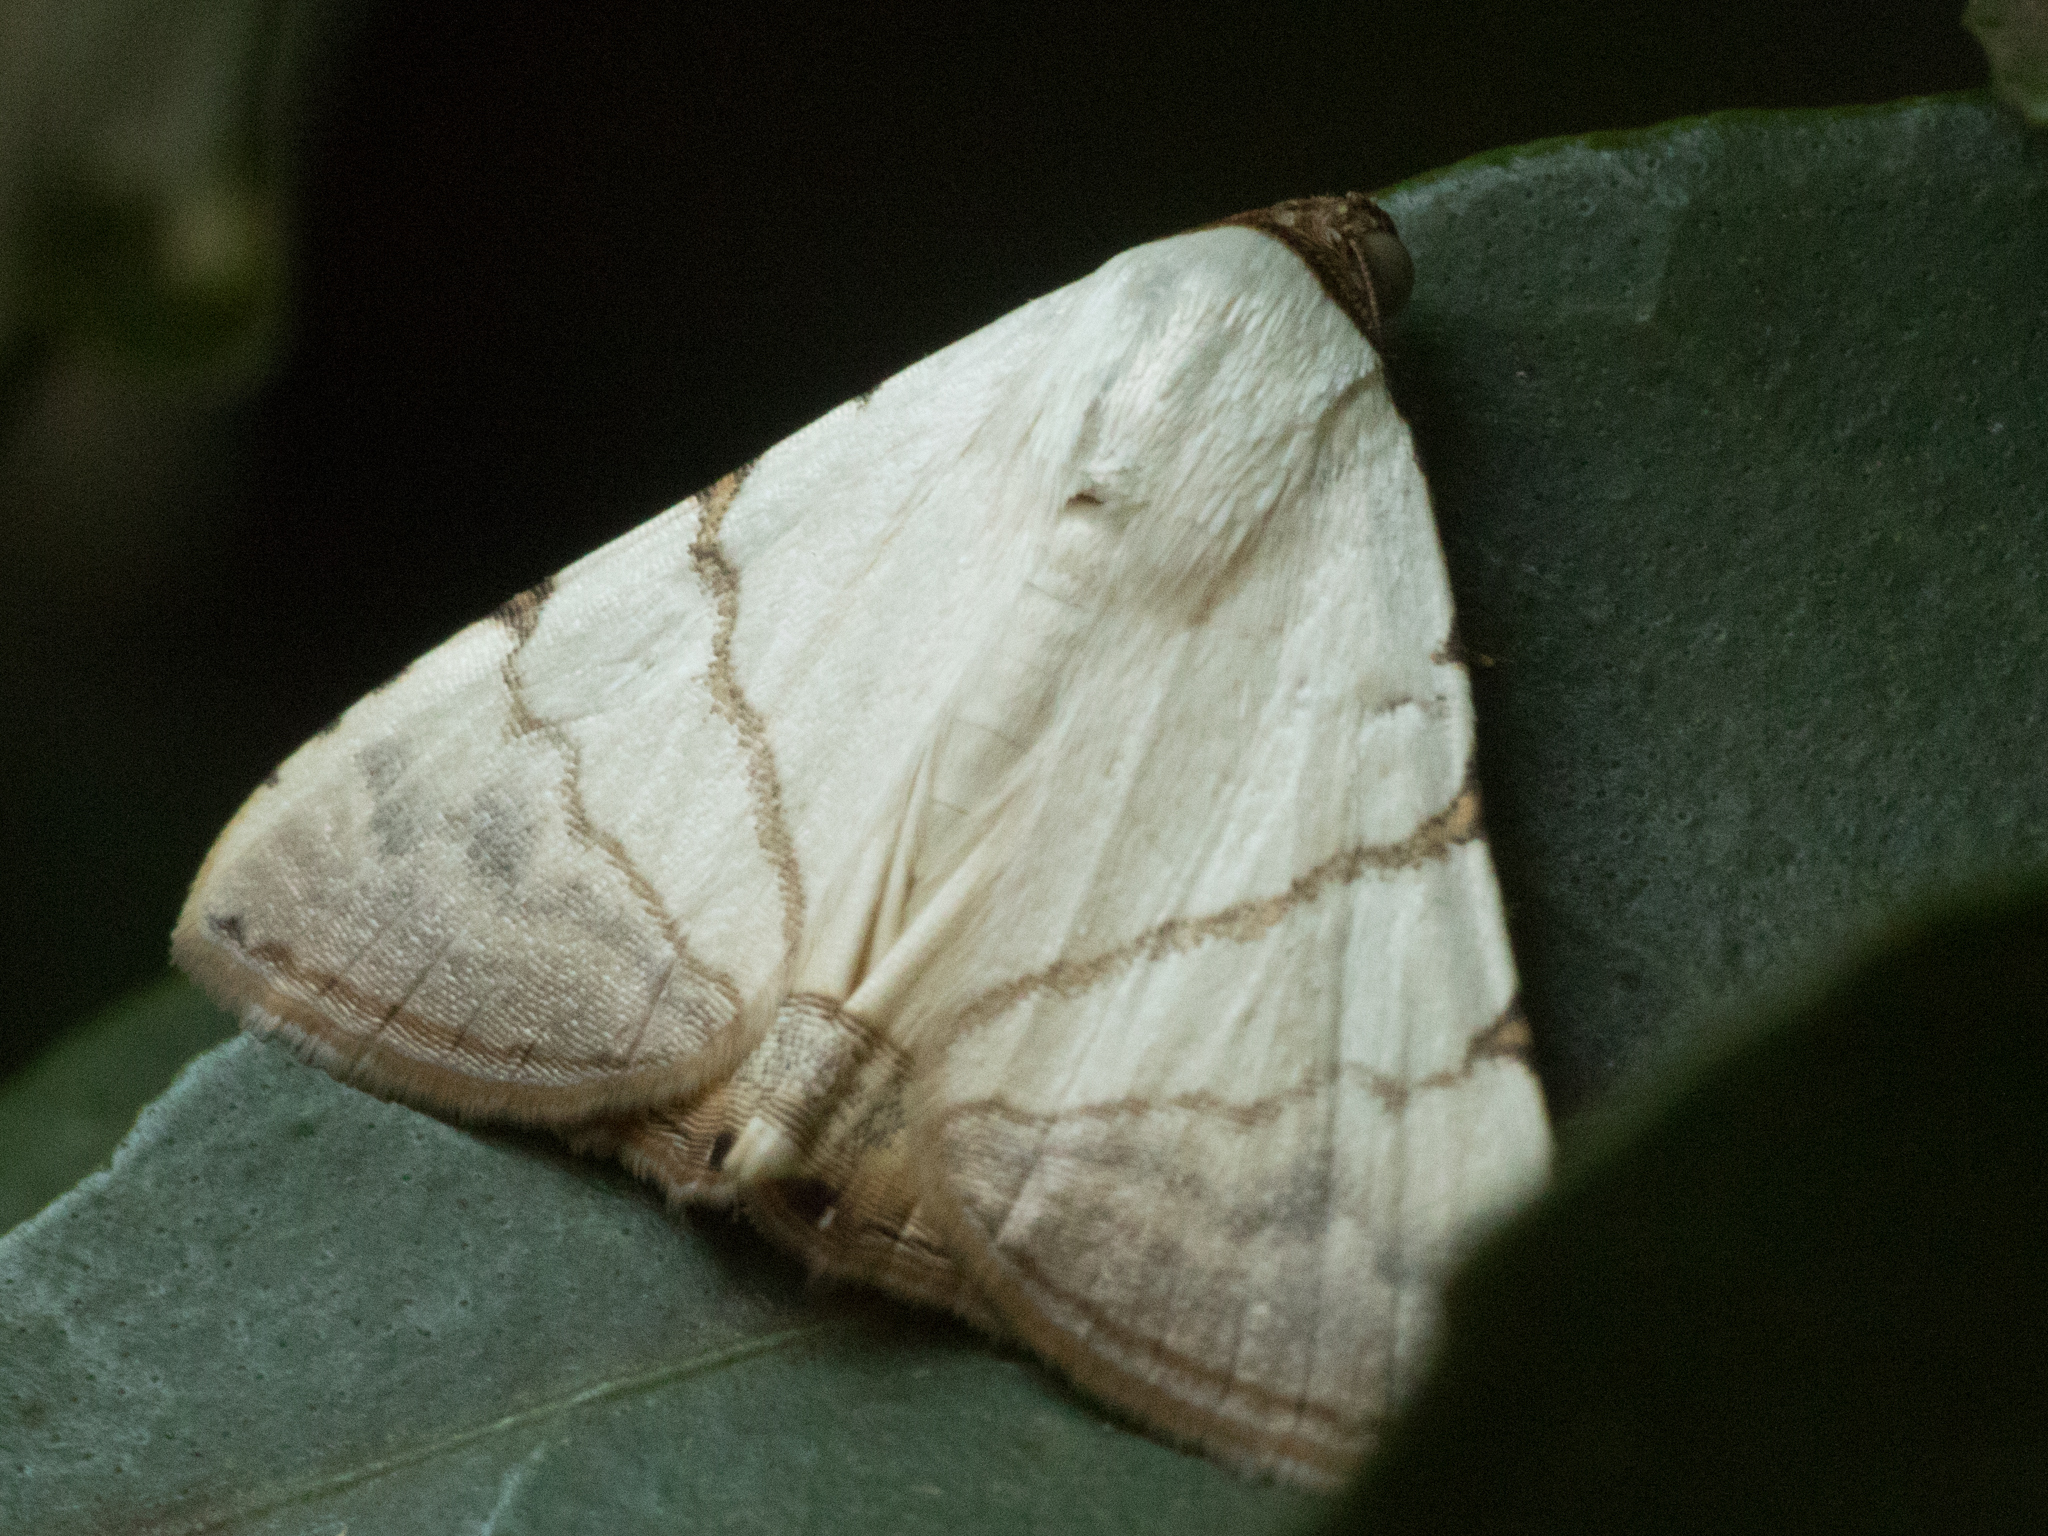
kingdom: Animalia
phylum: Arthropoda
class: Insecta
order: Lepidoptera
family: Erebidae
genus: Eulepidotis
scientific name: Eulepidotis albidus
